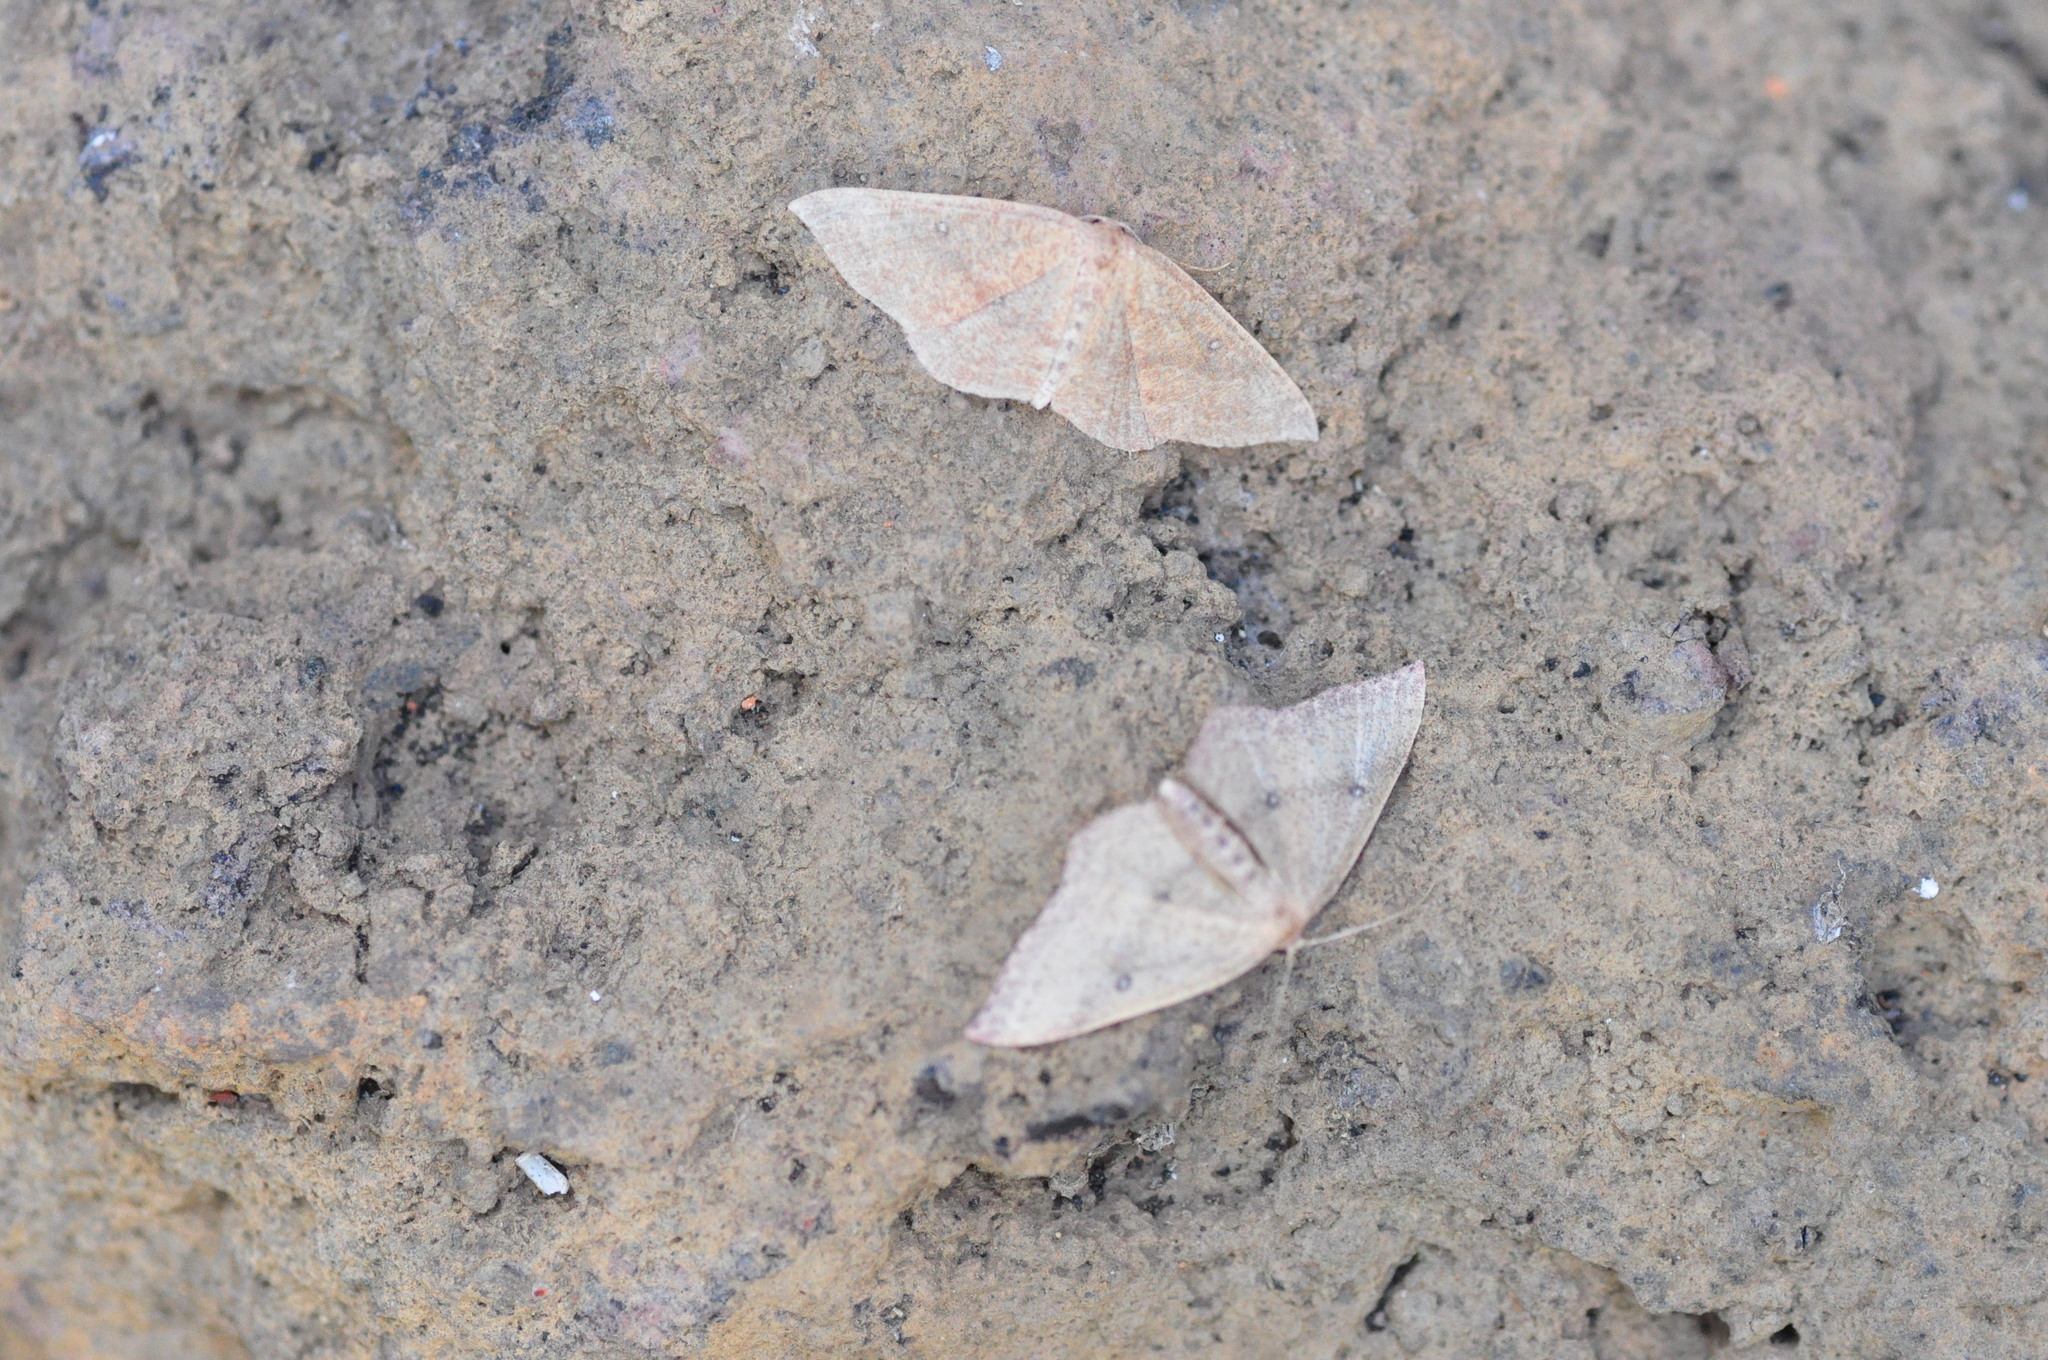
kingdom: Animalia
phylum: Arthropoda
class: Insecta
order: Lepidoptera
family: Geometridae
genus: Cyclophora
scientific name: Cyclophora maderensis
